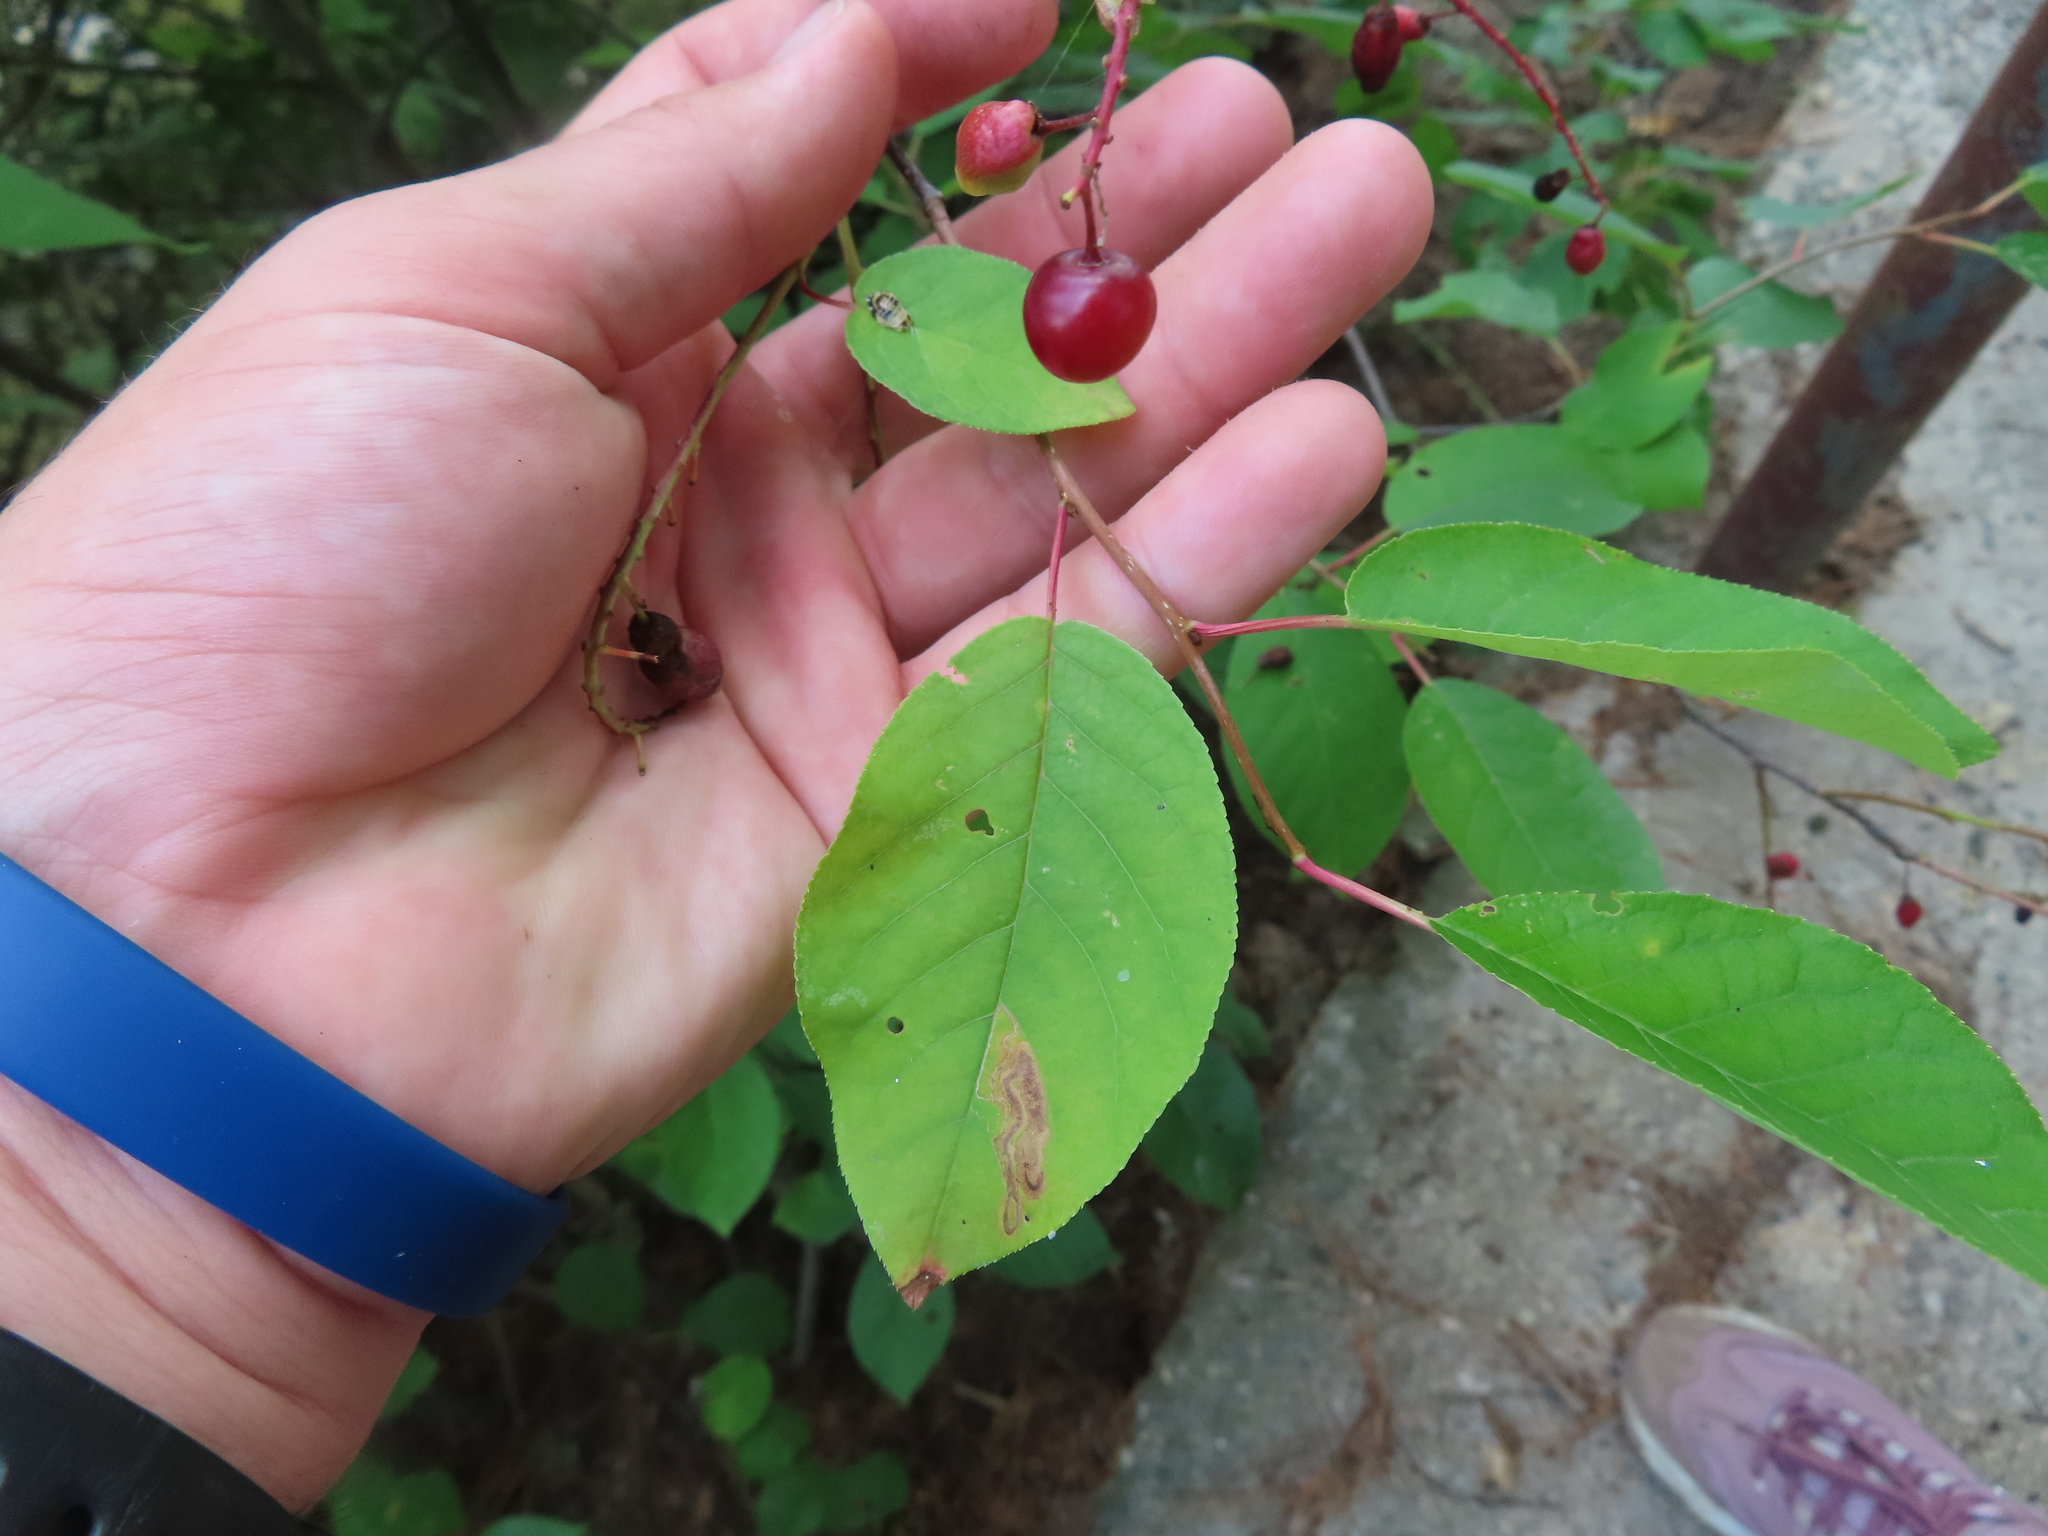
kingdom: Plantae
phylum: Tracheophyta
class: Magnoliopsida
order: Rosales
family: Rosaceae
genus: Prunus
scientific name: Prunus virginiana
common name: Chokecherry
